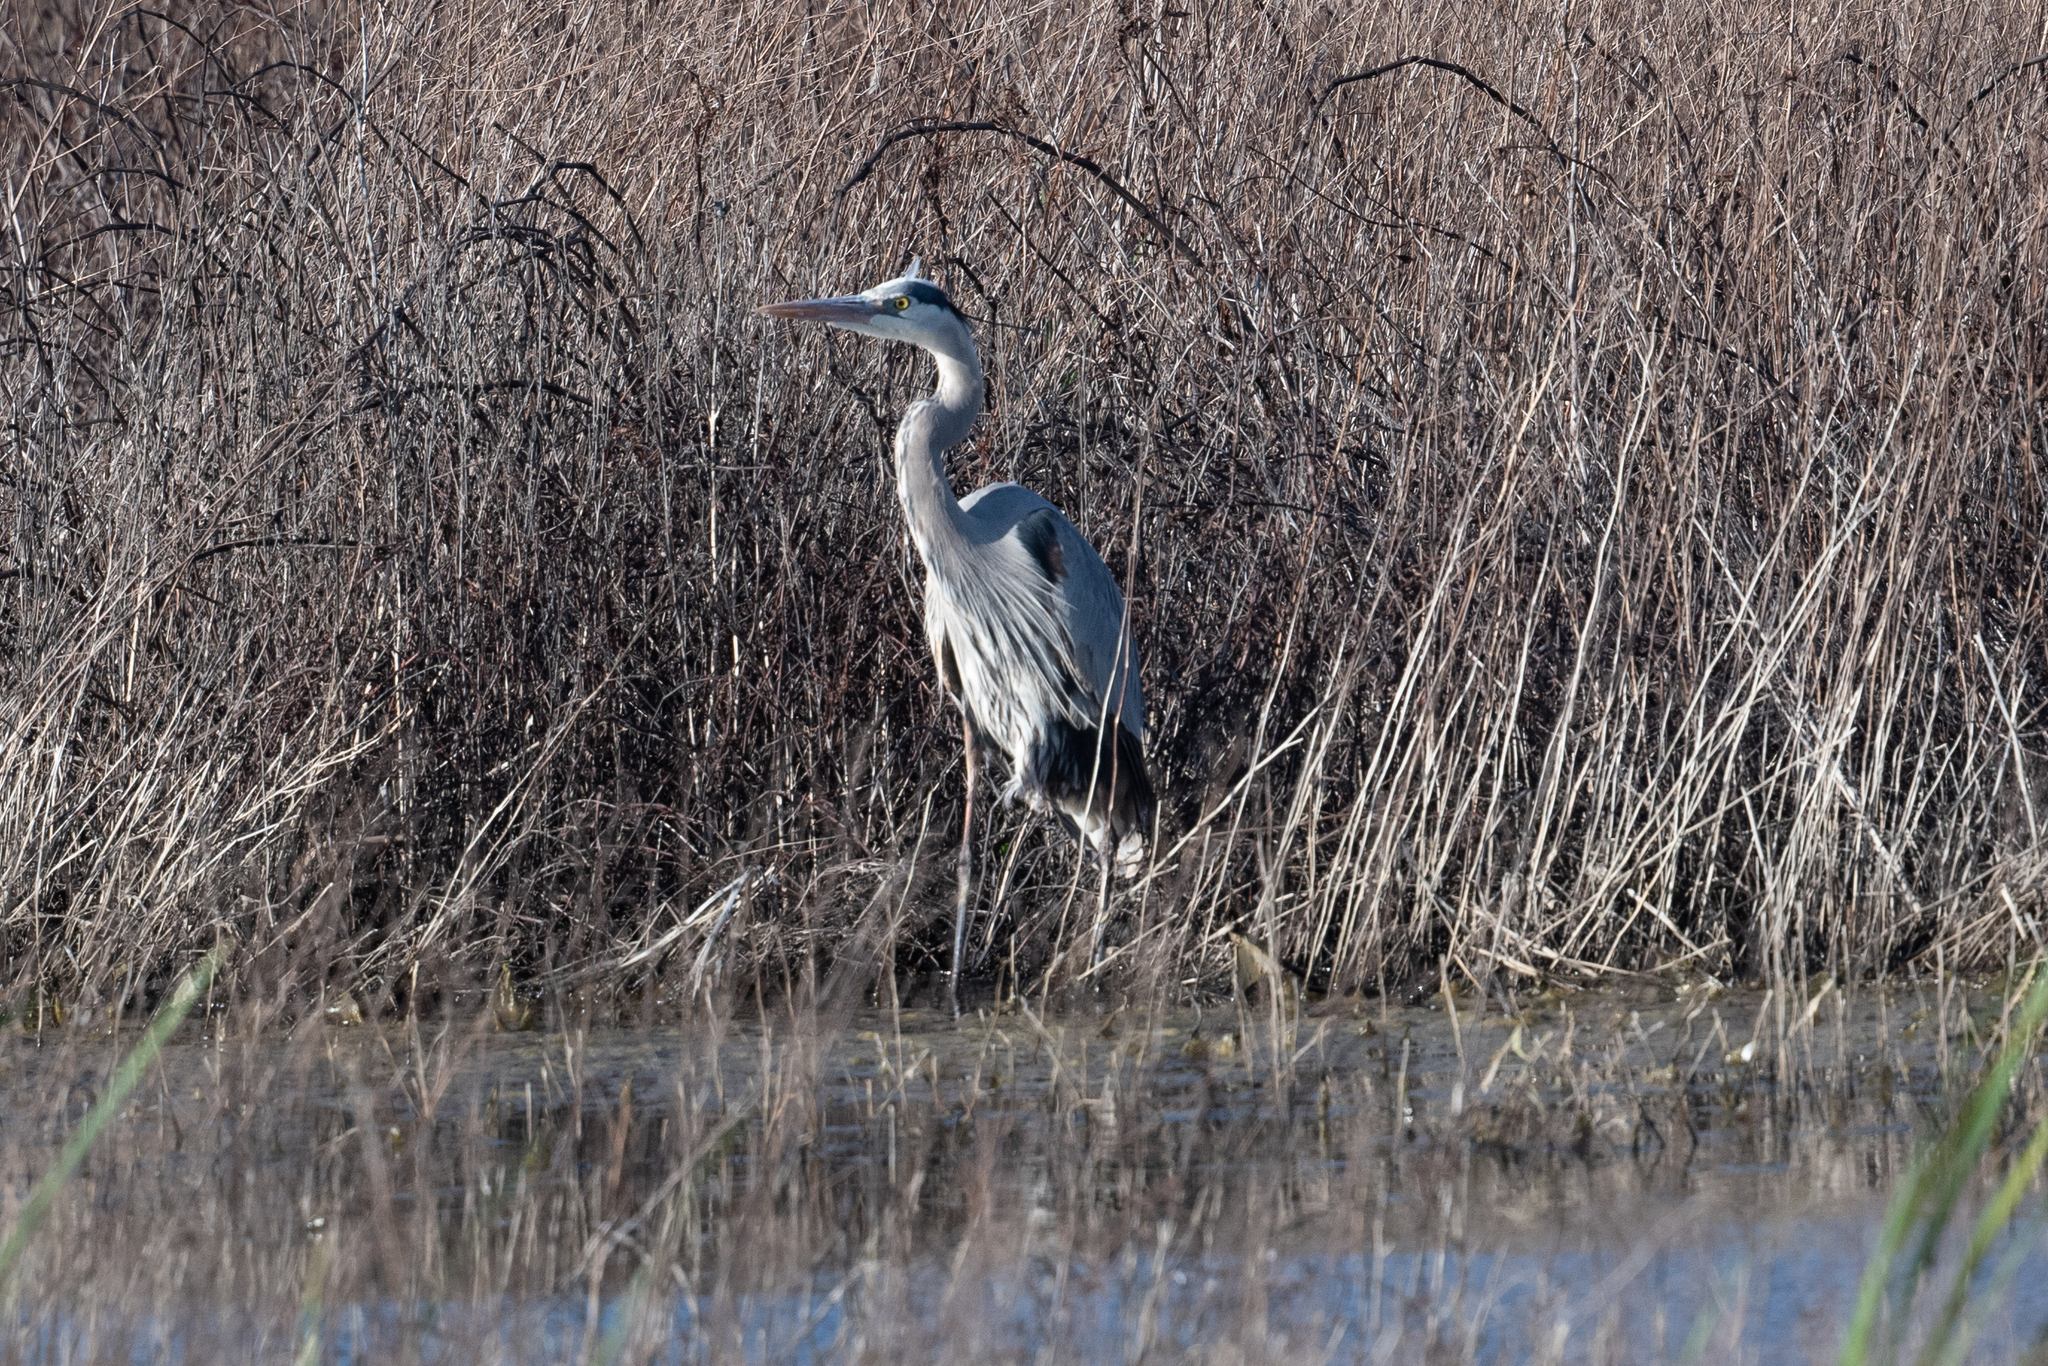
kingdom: Animalia
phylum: Chordata
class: Aves
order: Pelecaniformes
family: Ardeidae
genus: Ardea
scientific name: Ardea herodias
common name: Great blue heron
